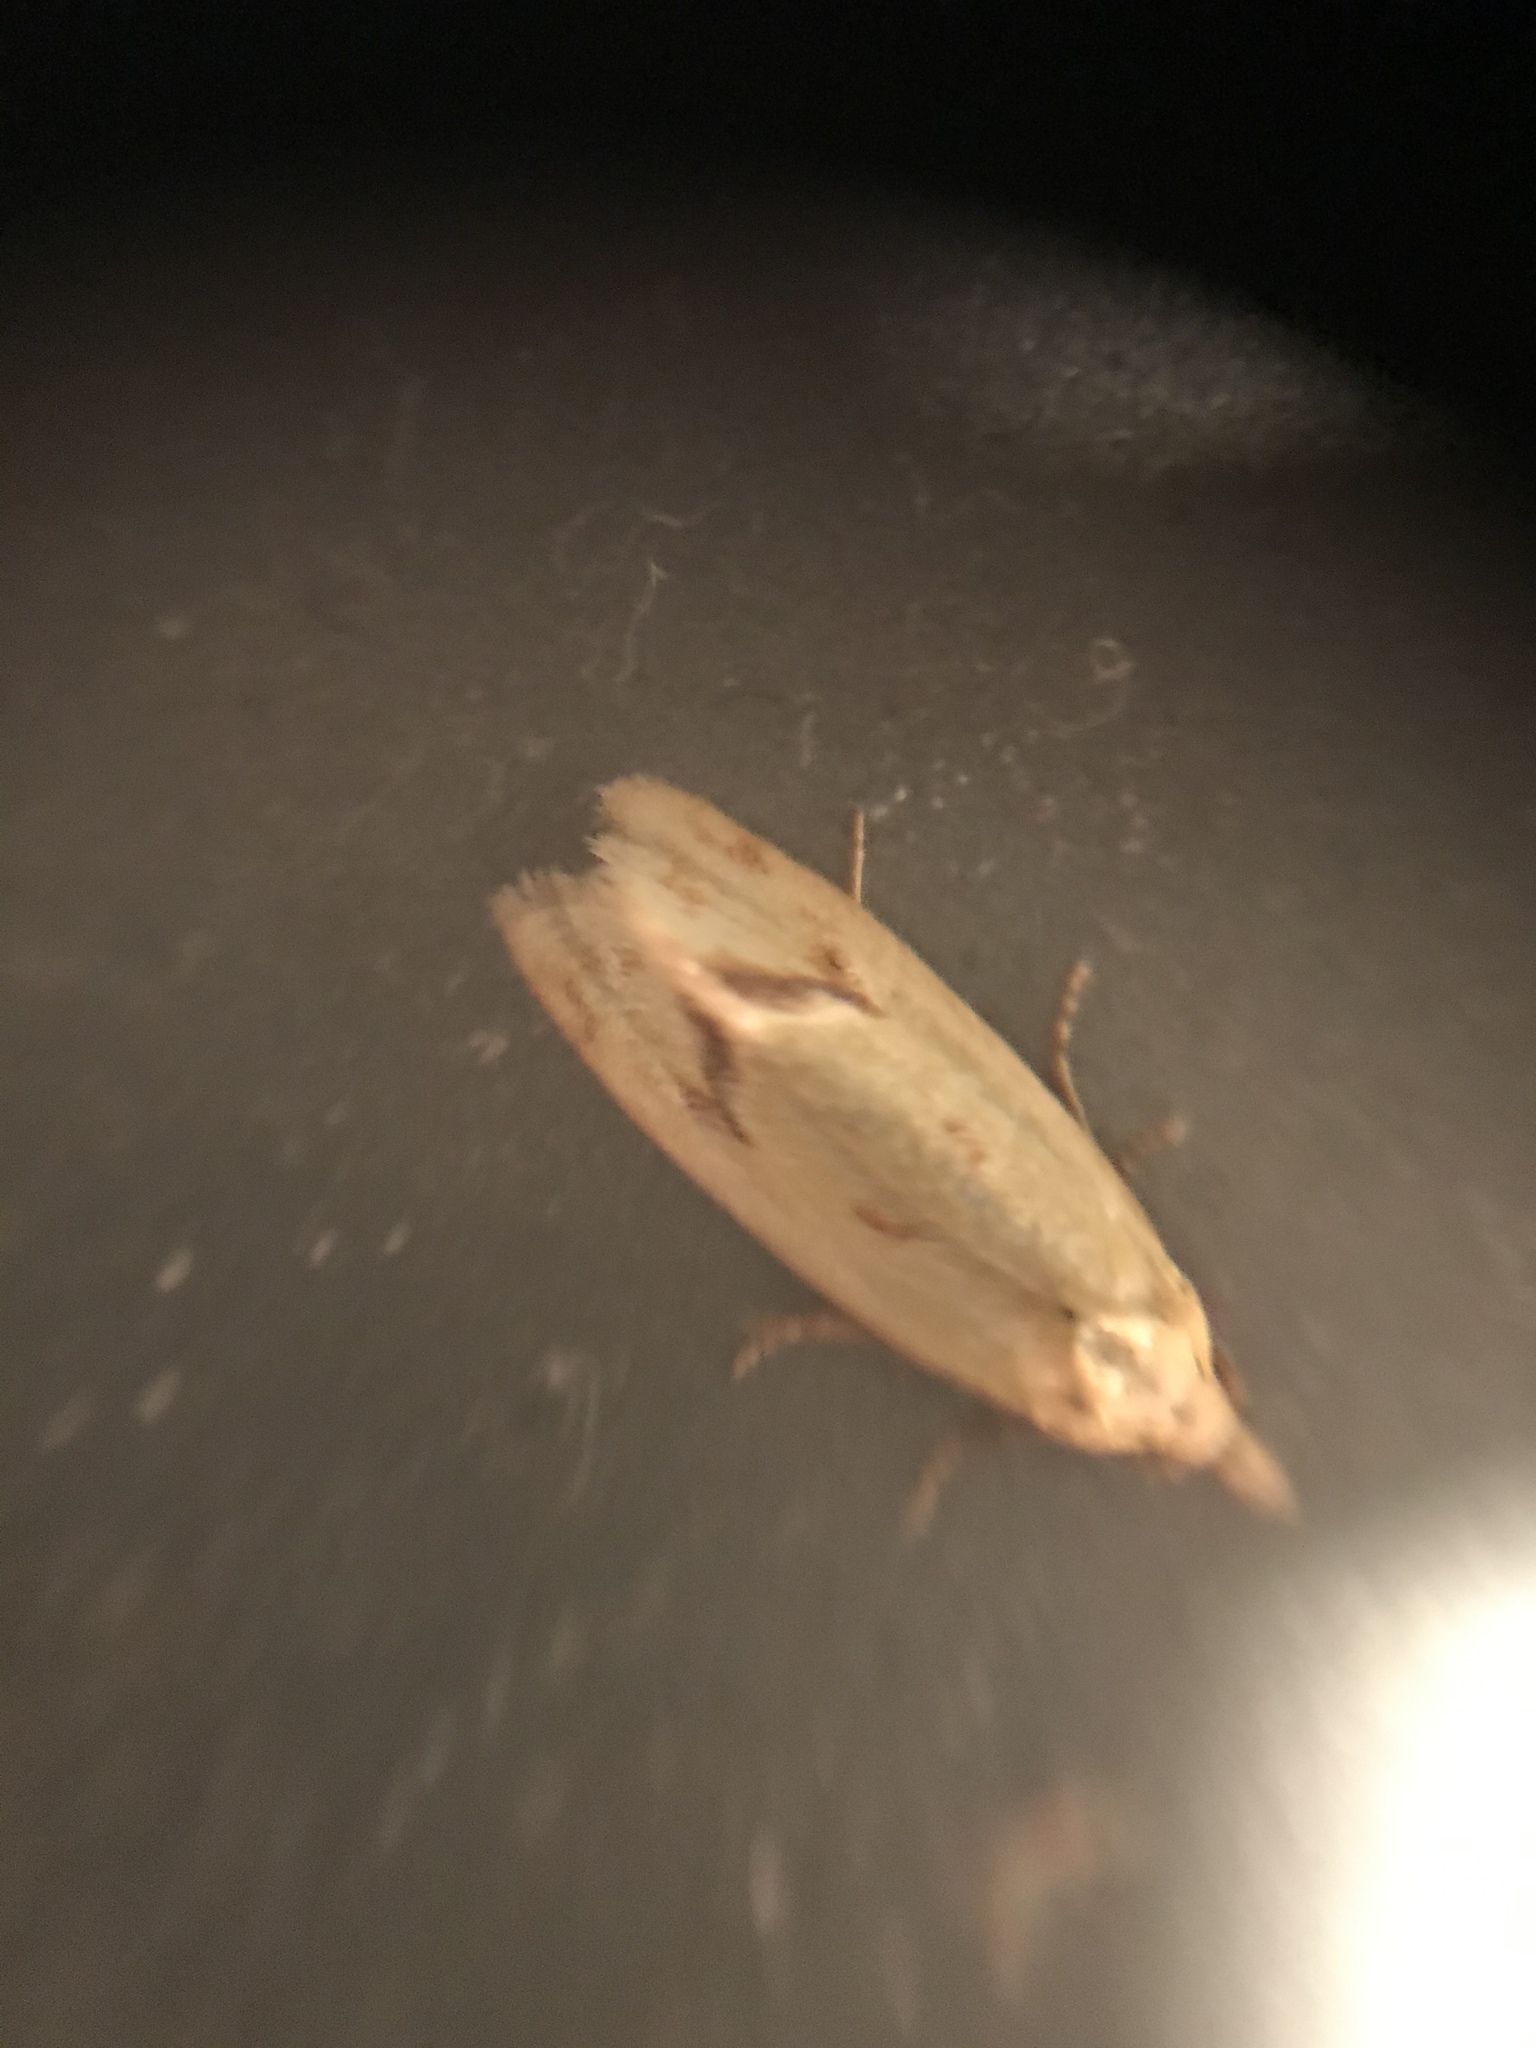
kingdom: Animalia
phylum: Arthropoda
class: Insecta
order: Lepidoptera
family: Tortricidae
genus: Agapeta
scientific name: Agapeta hamana
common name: Common yellow conch
